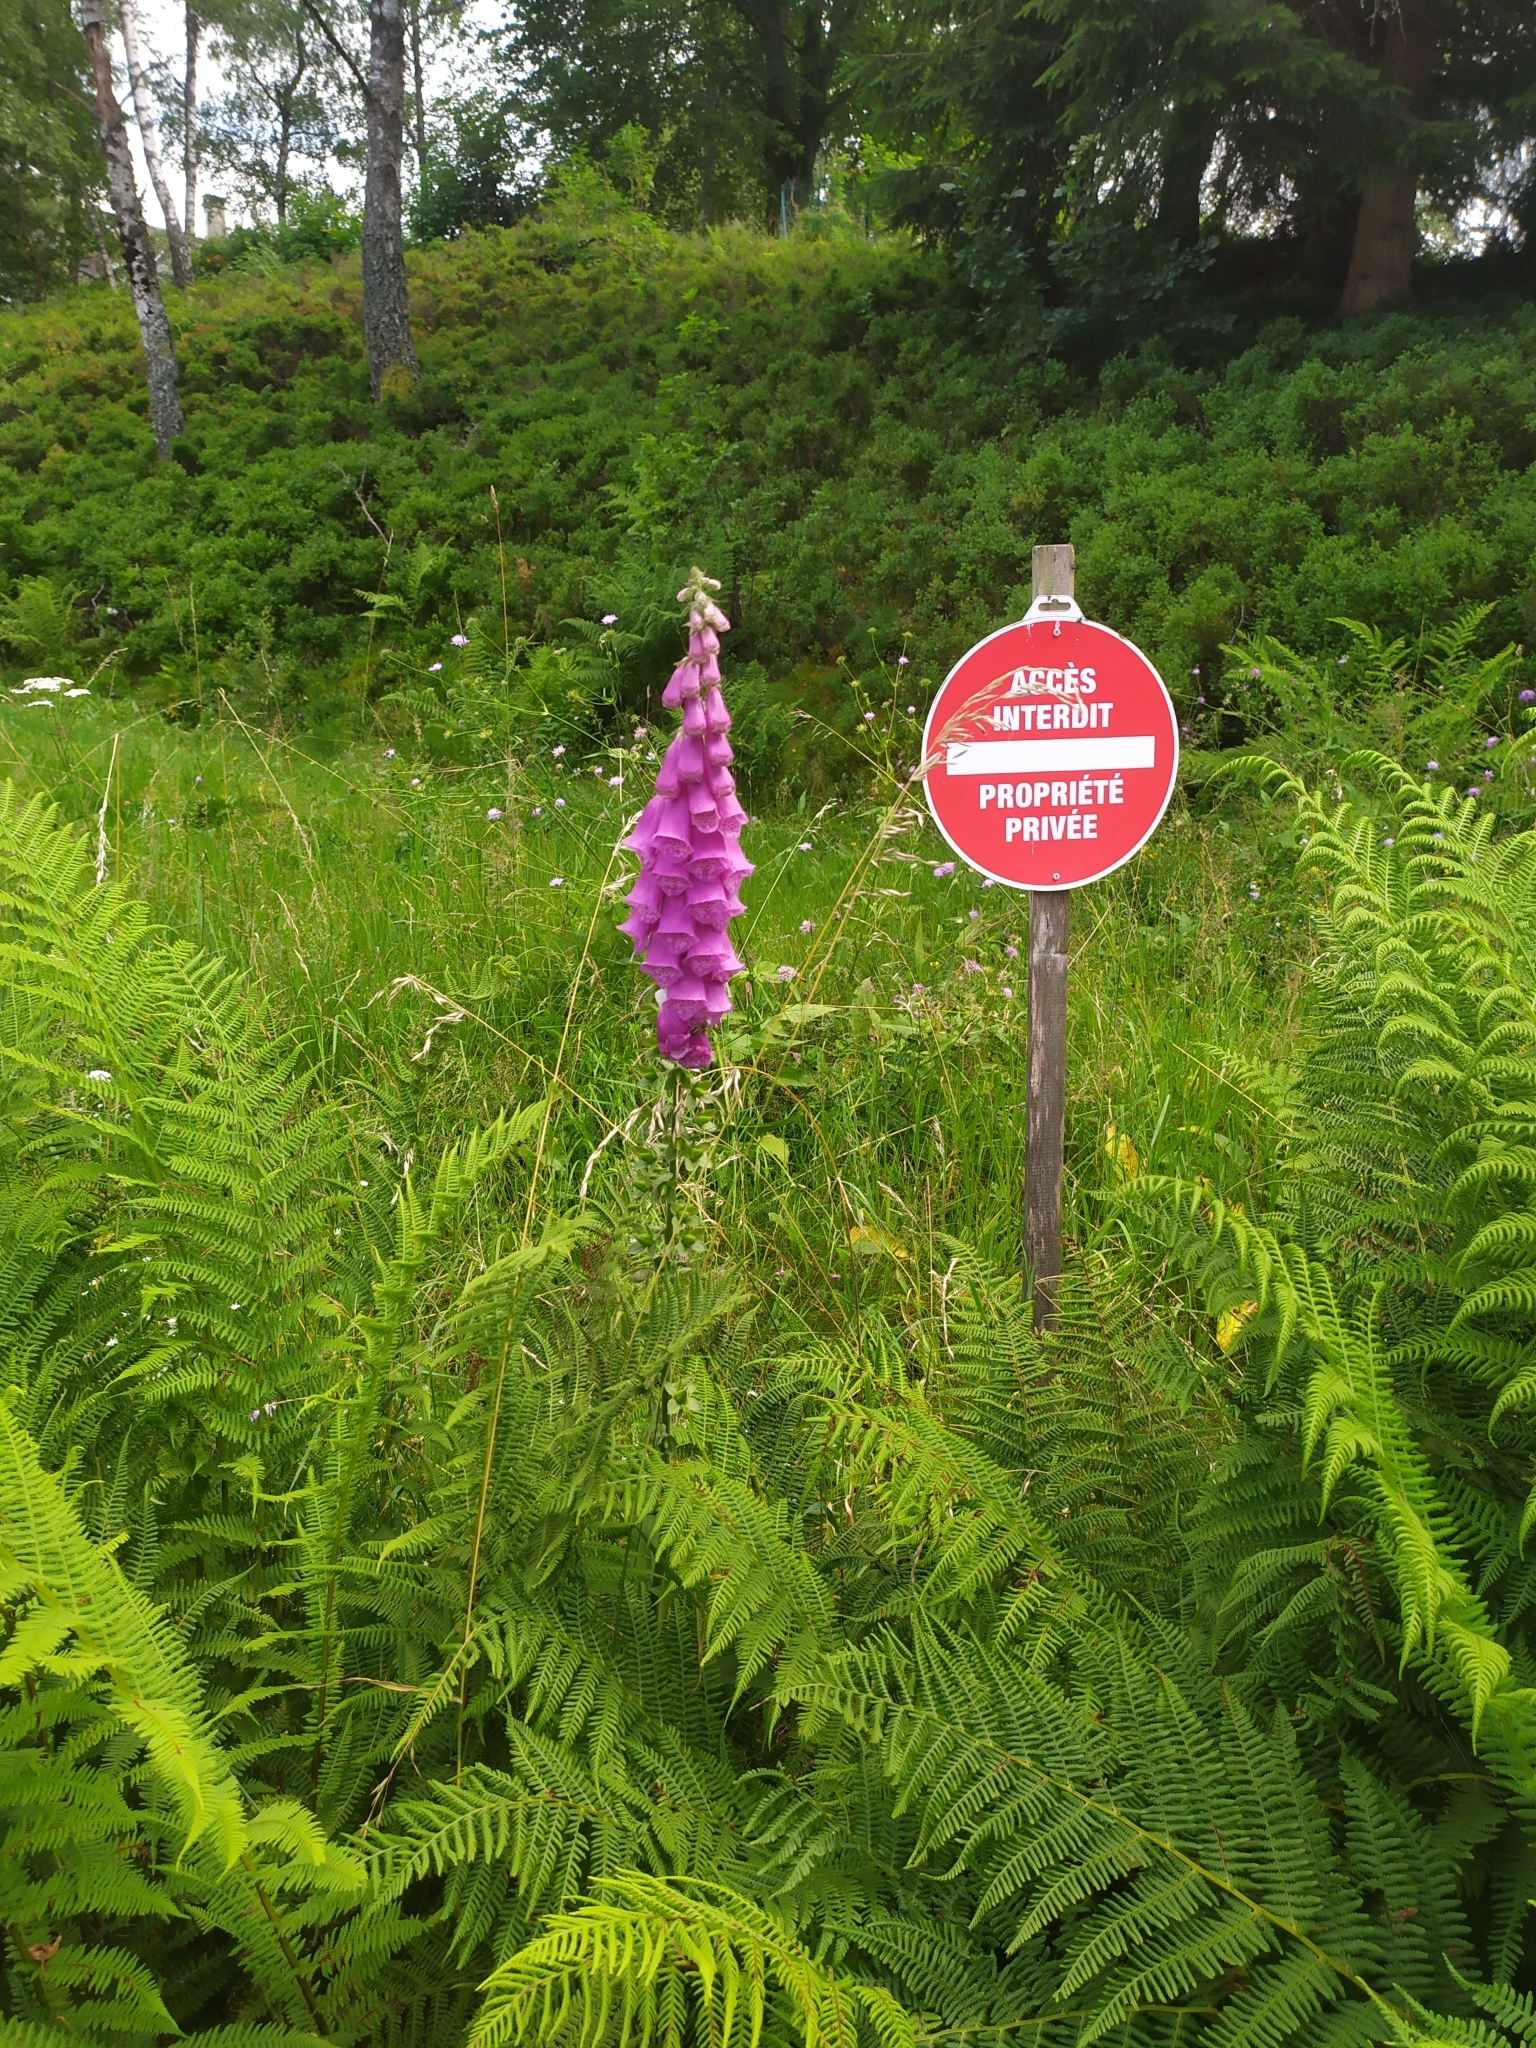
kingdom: Plantae
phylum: Tracheophyta
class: Magnoliopsida
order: Lamiales
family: Plantaginaceae
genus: Digitalis
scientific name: Digitalis purpurea
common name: Foxglove
